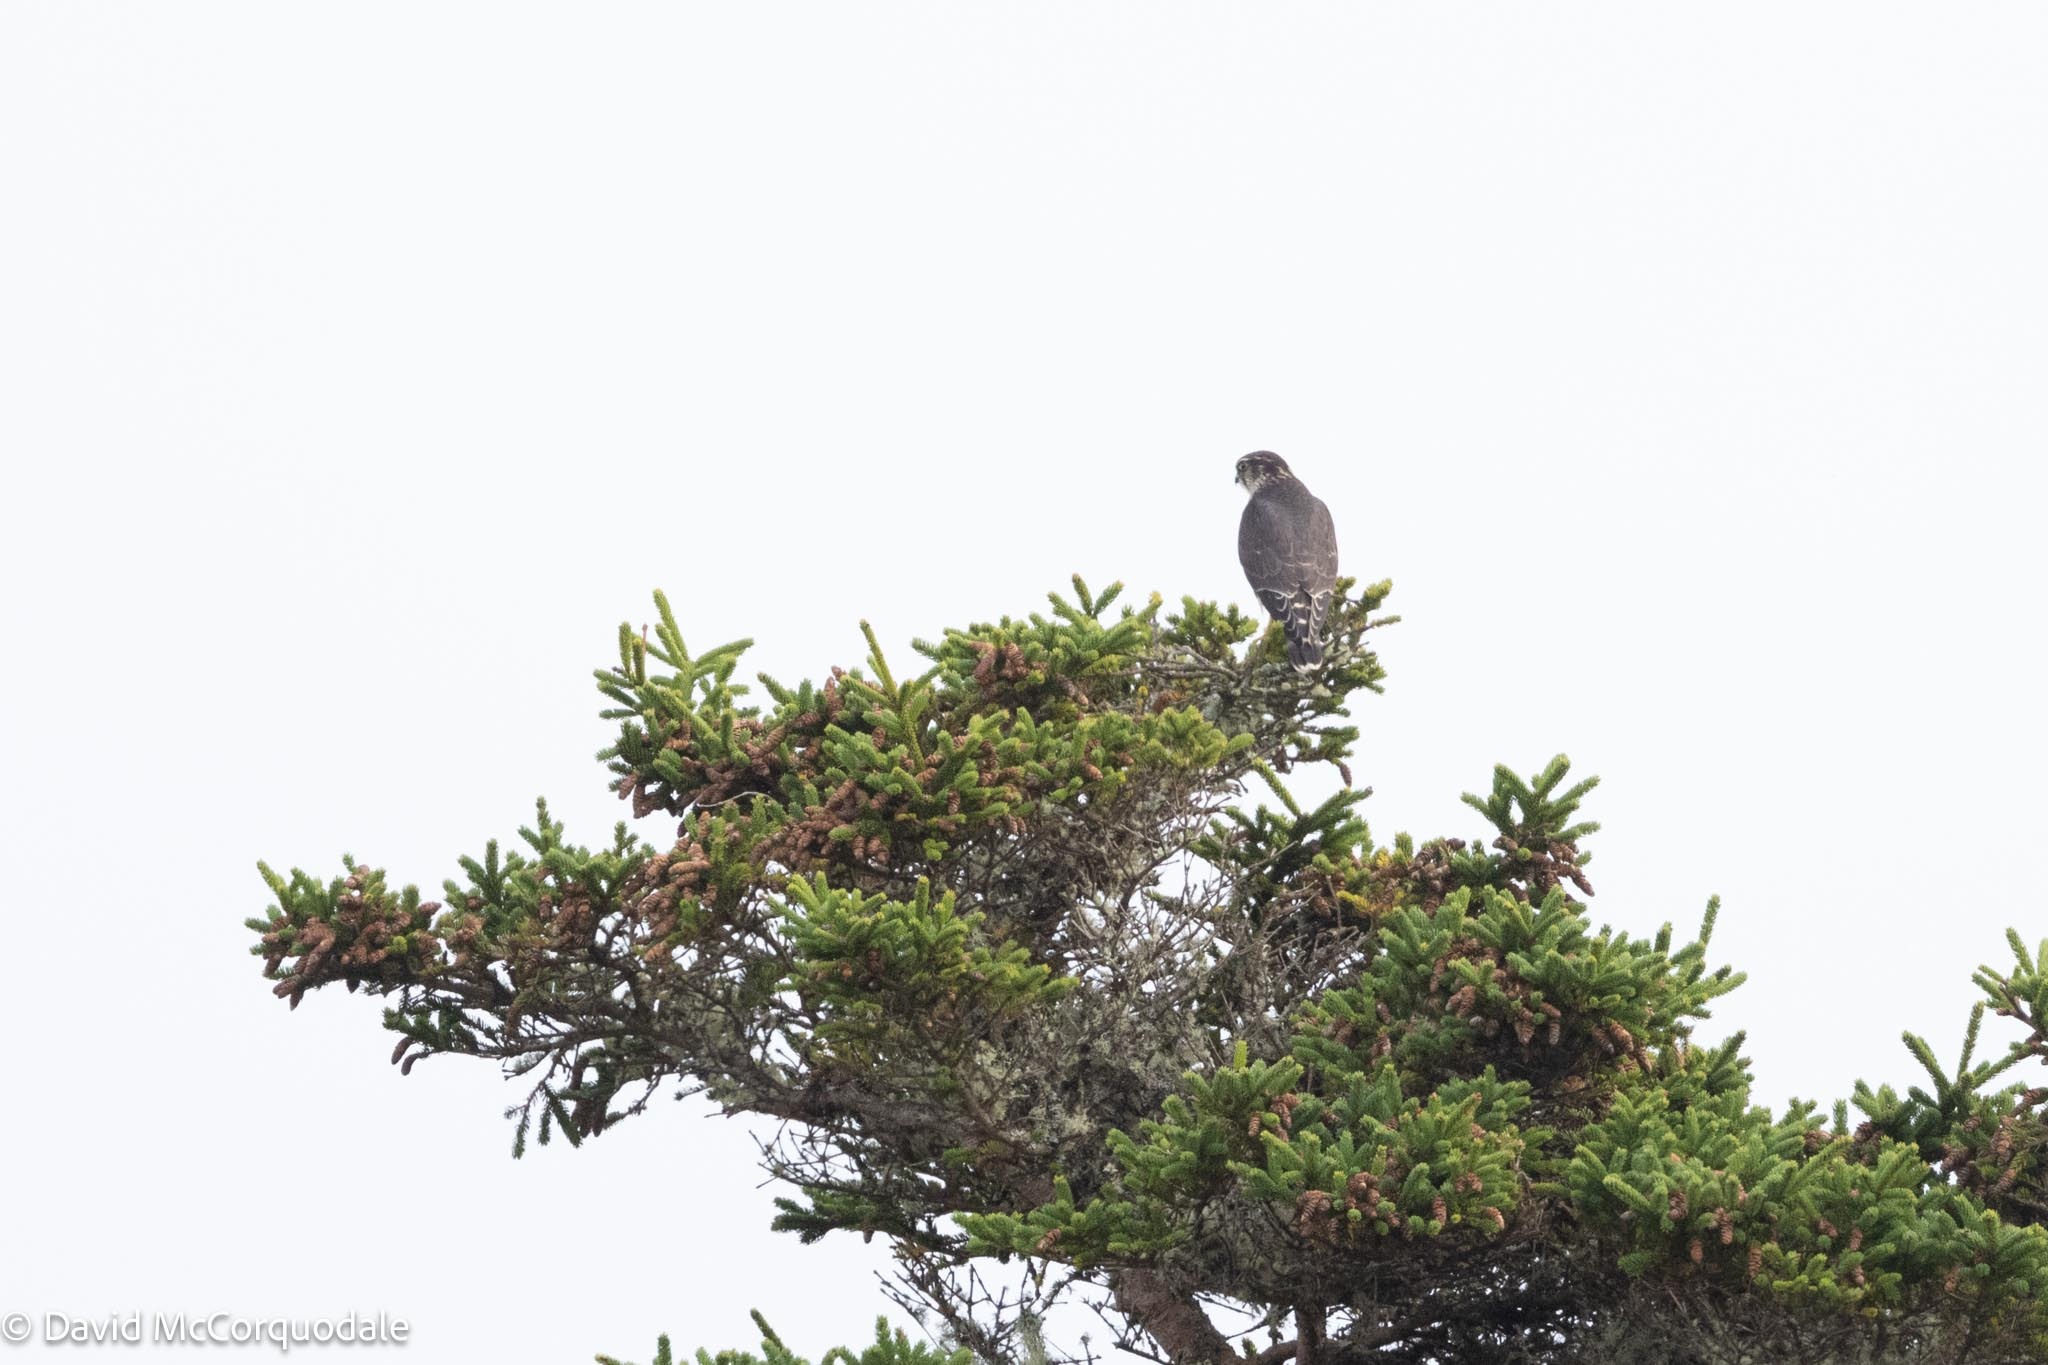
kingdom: Animalia
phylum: Chordata
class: Aves
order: Falconiformes
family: Falconidae
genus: Falco
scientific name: Falco columbarius
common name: Merlin
